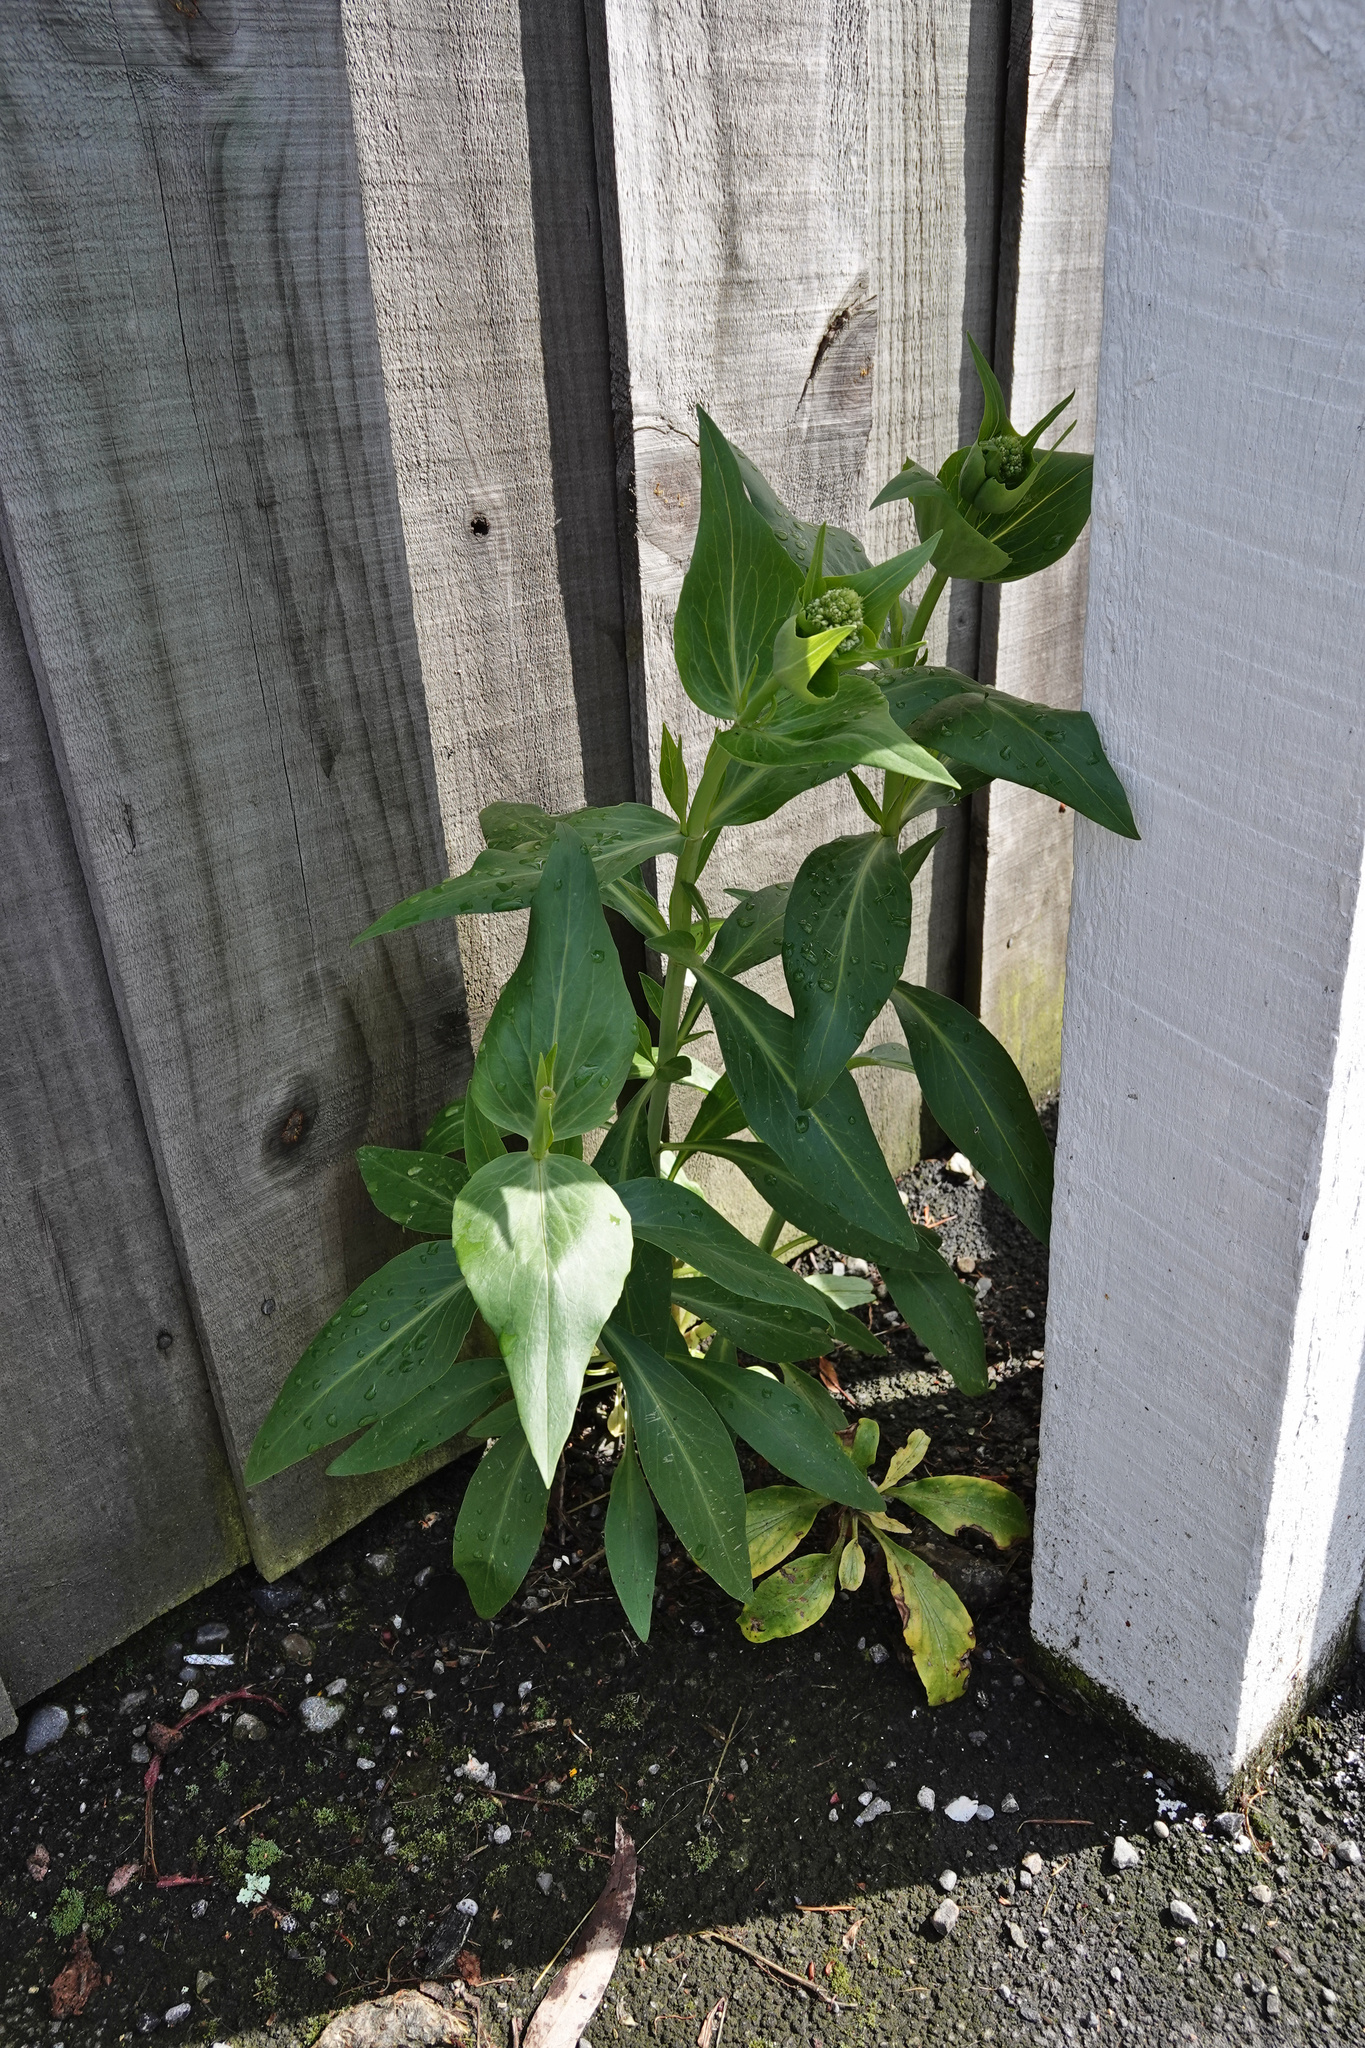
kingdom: Plantae
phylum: Tracheophyta
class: Magnoliopsida
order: Dipsacales
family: Caprifoliaceae
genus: Centranthus
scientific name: Centranthus ruber
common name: Red valerian
